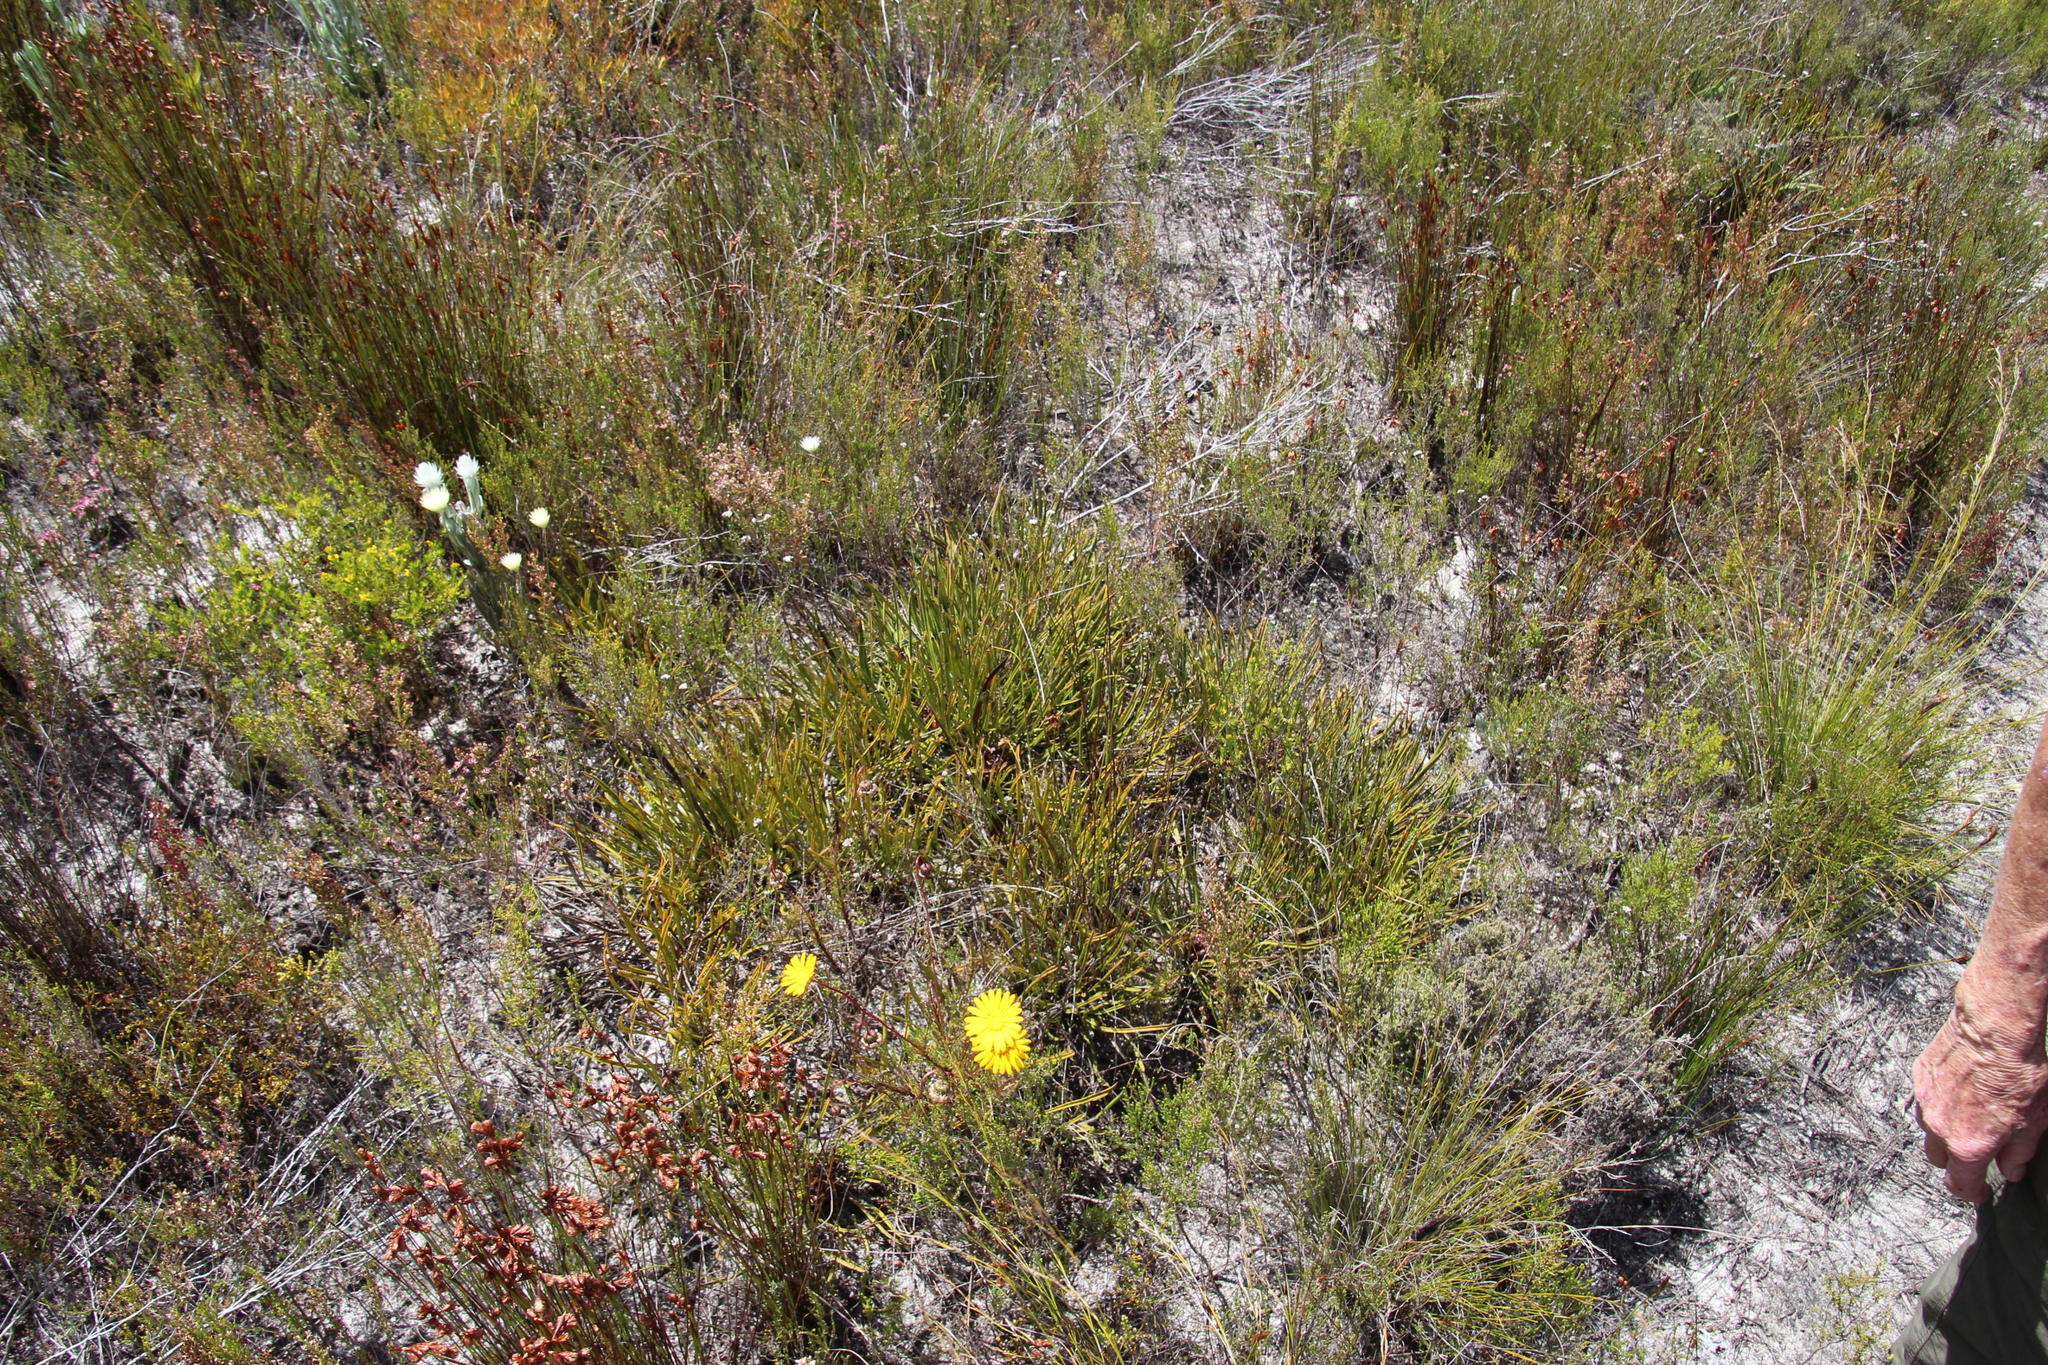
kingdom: Plantae
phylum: Tracheophyta
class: Magnoliopsida
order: Proteales
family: Proteaceae
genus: Protea
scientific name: Protea scabra
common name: Sandpaper-leaf sugarbush
